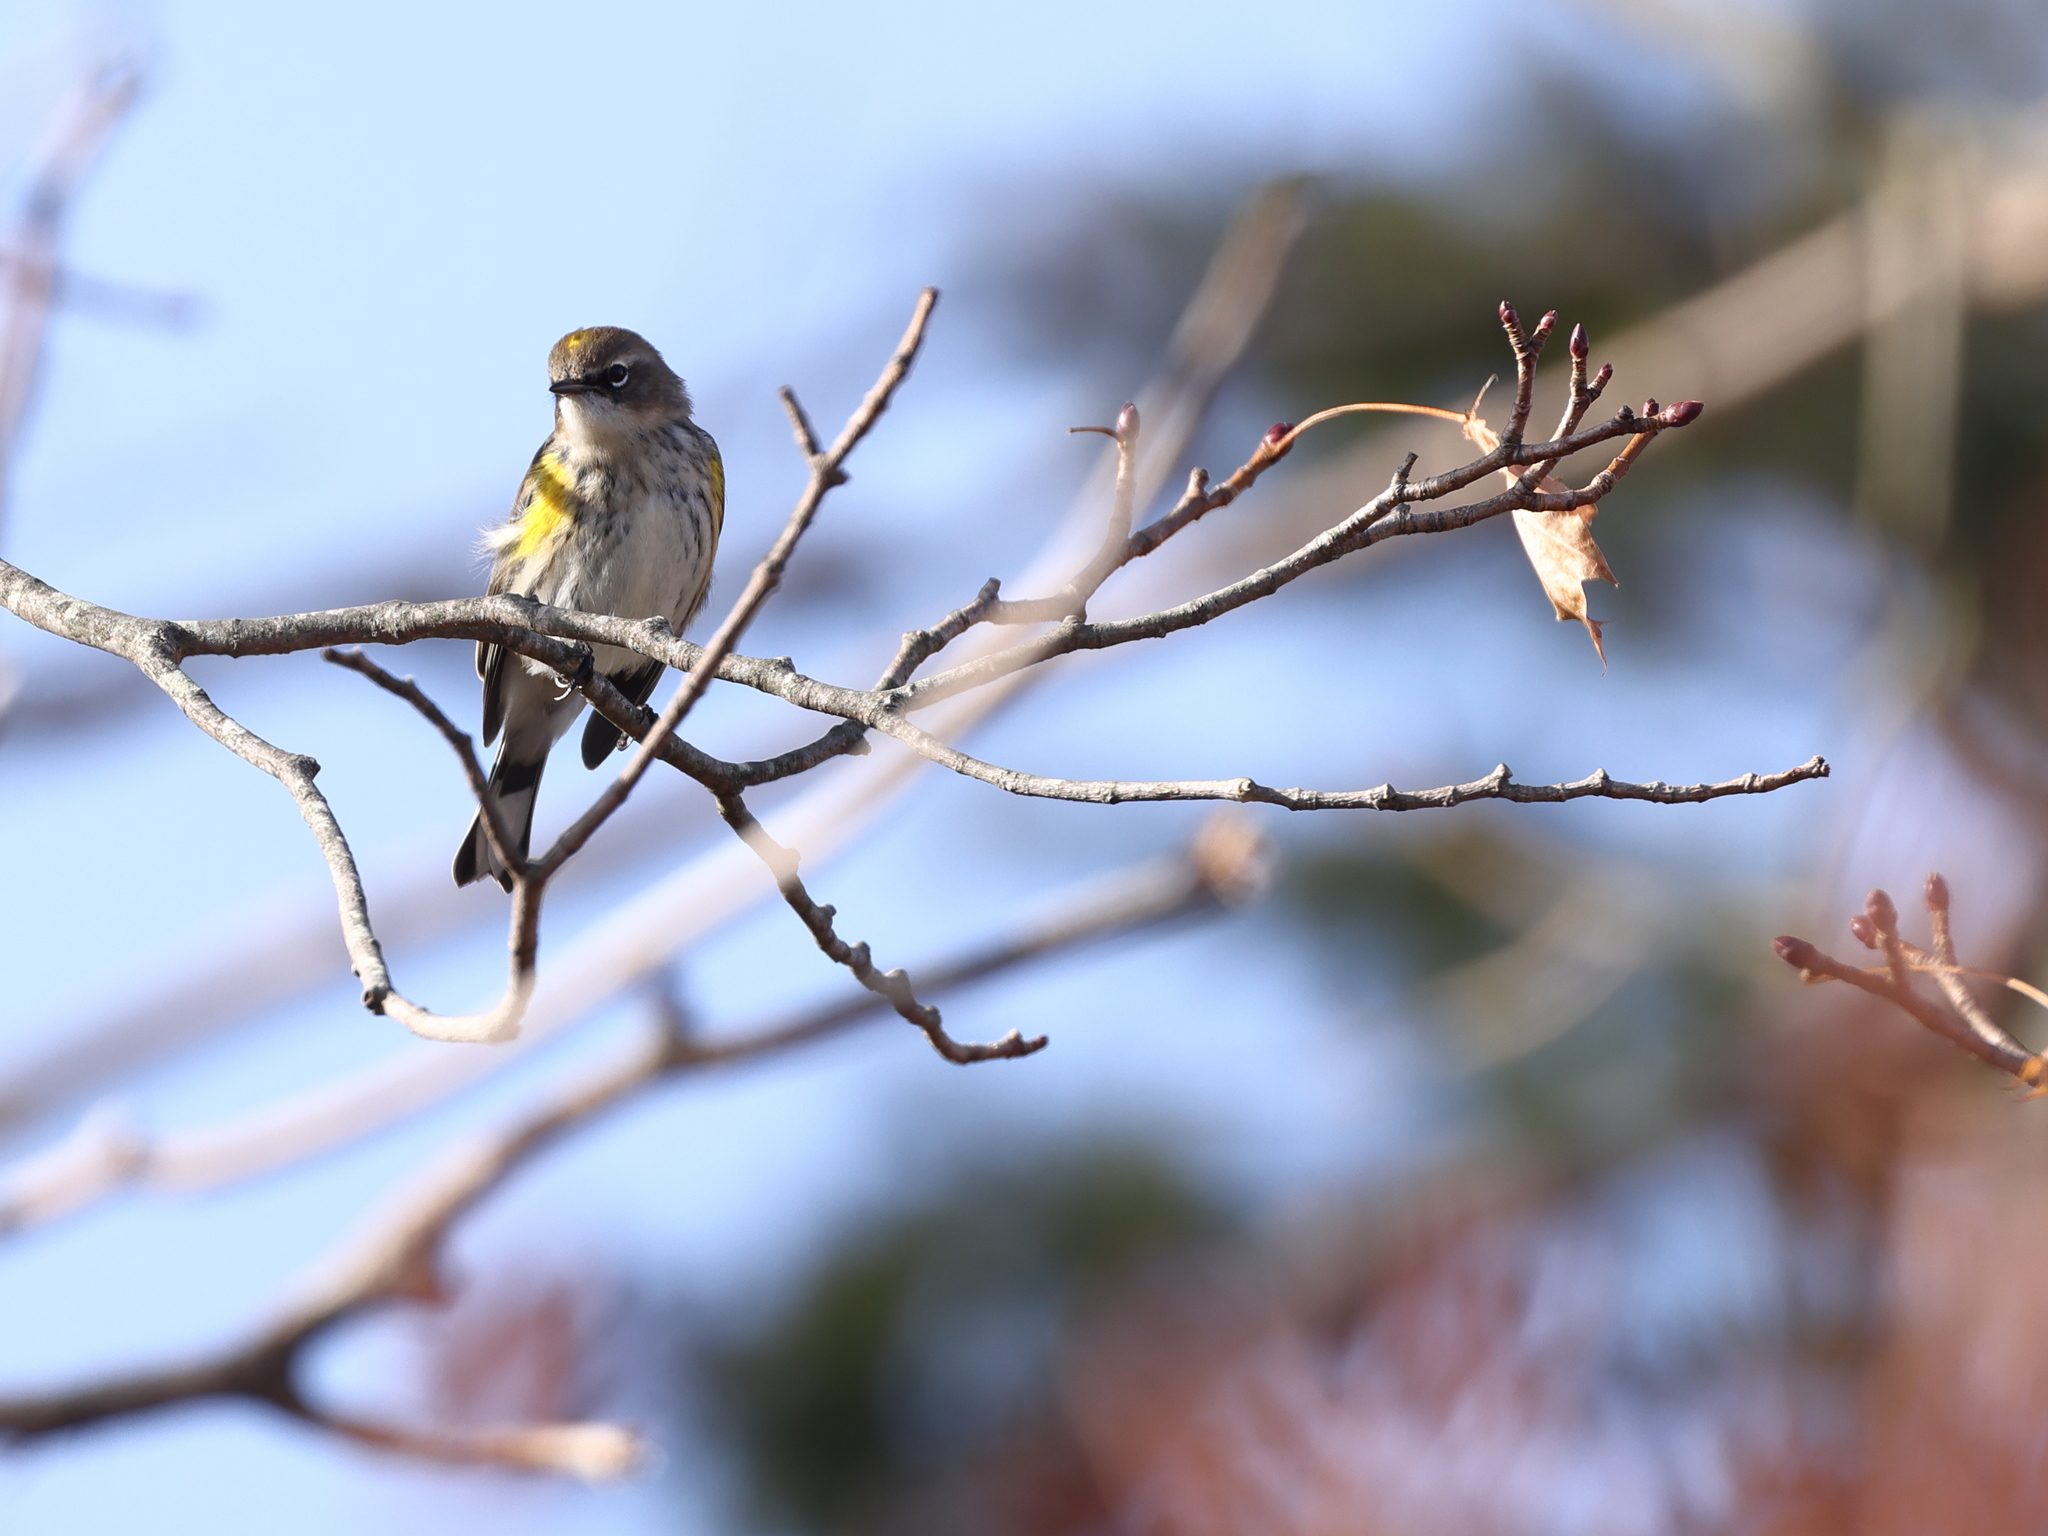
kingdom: Animalia
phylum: Chordata
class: Aves
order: Passeriformes
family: Parulidae
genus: Setophaga
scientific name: Setophaga coronata
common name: Myrtle warbler
